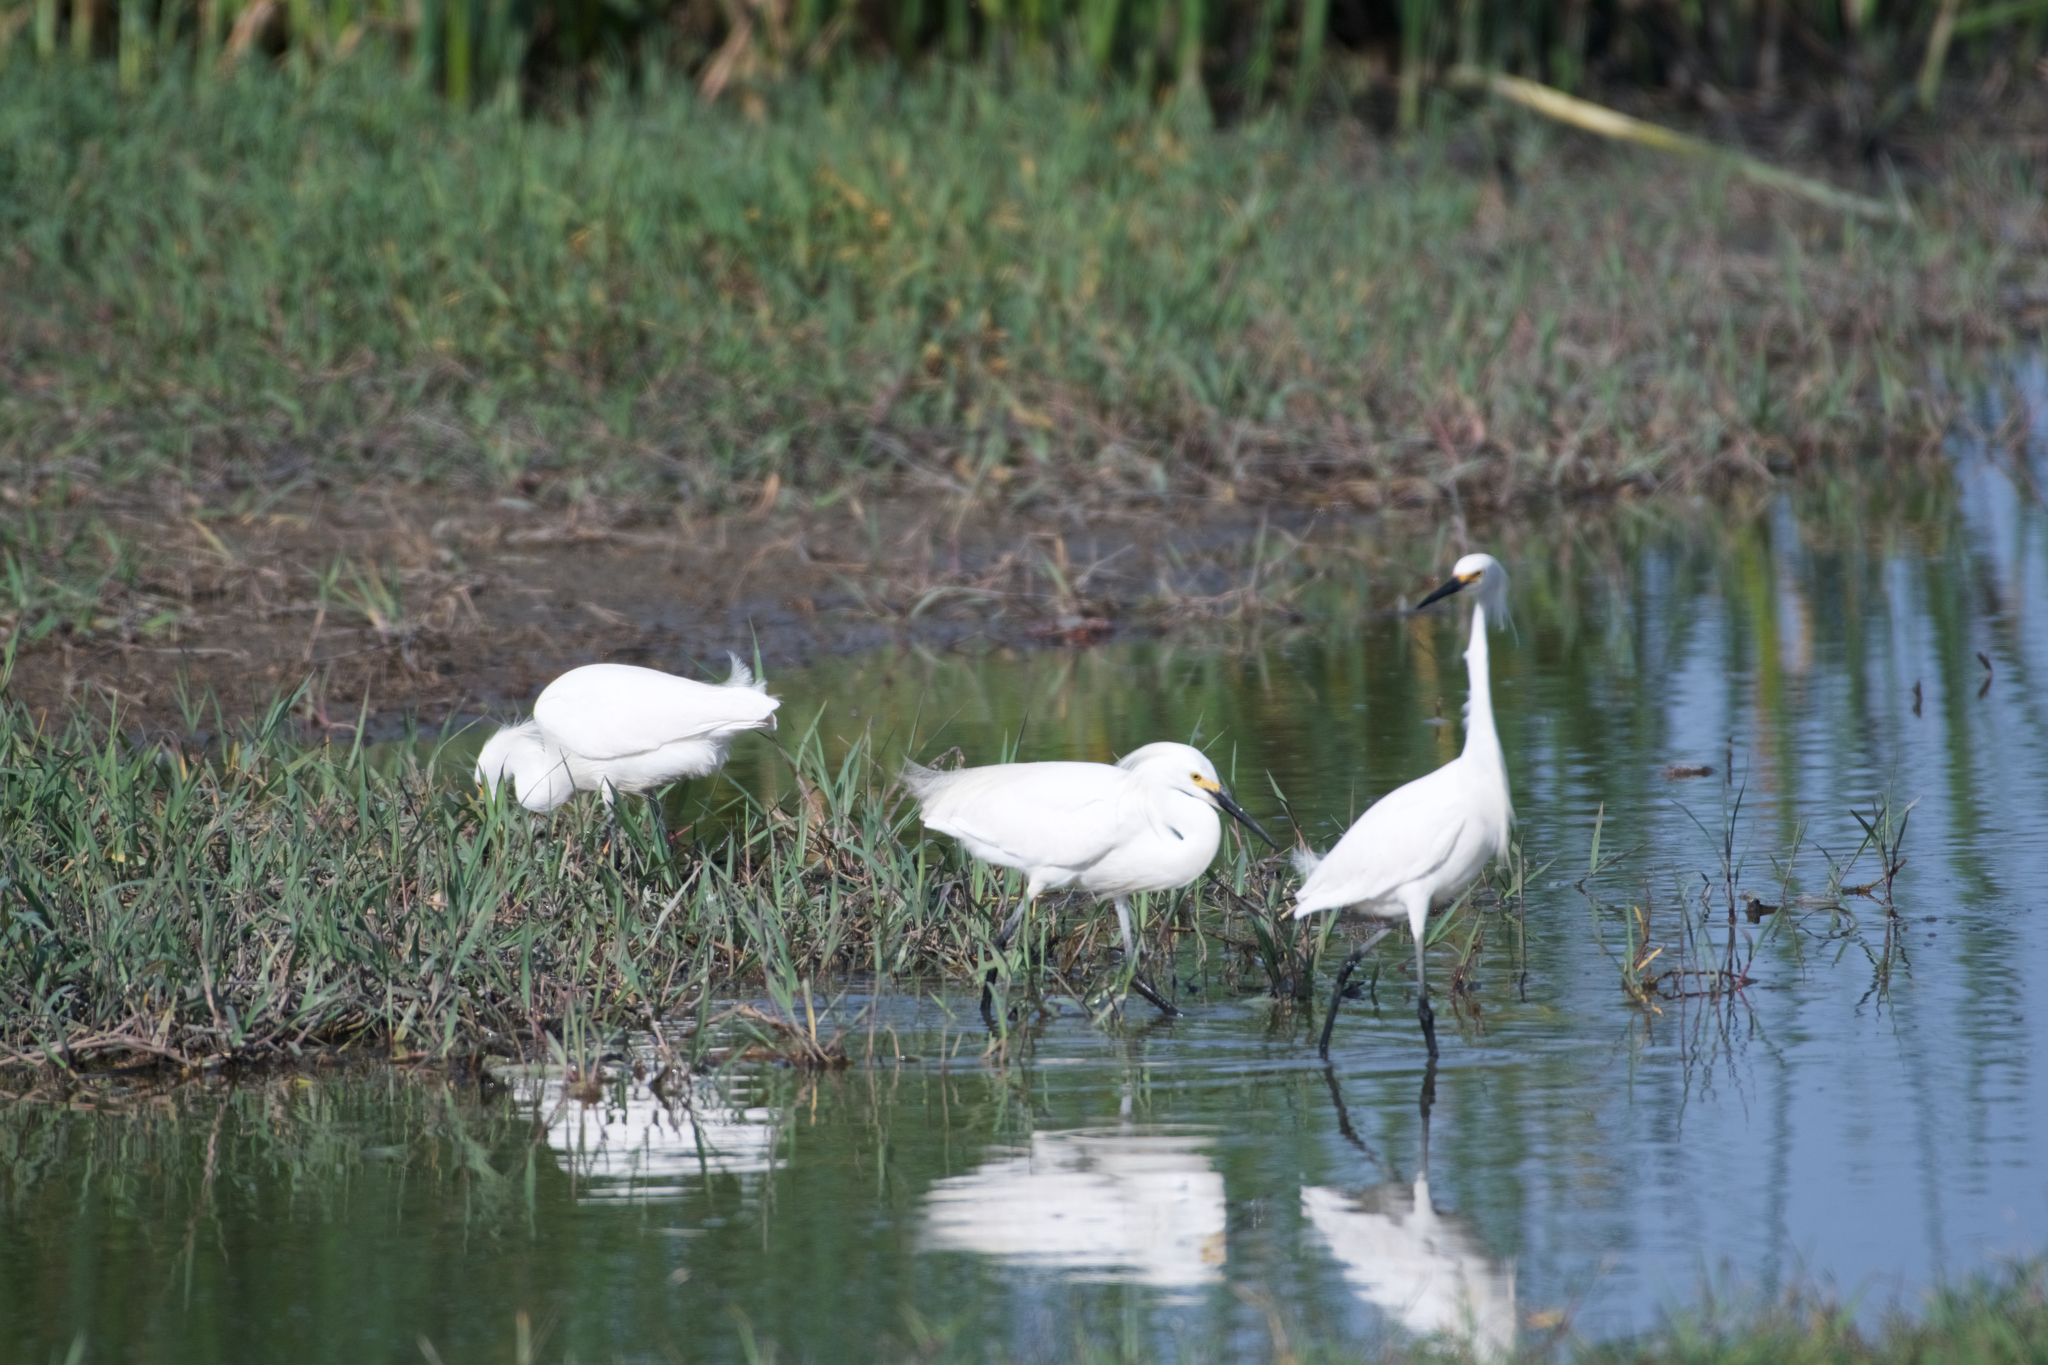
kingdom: Animalia
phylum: Chordata
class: Aves
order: Pelecaniformes
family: Ardeidae
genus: Egretta
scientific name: Egretta thula
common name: Snowy egret
